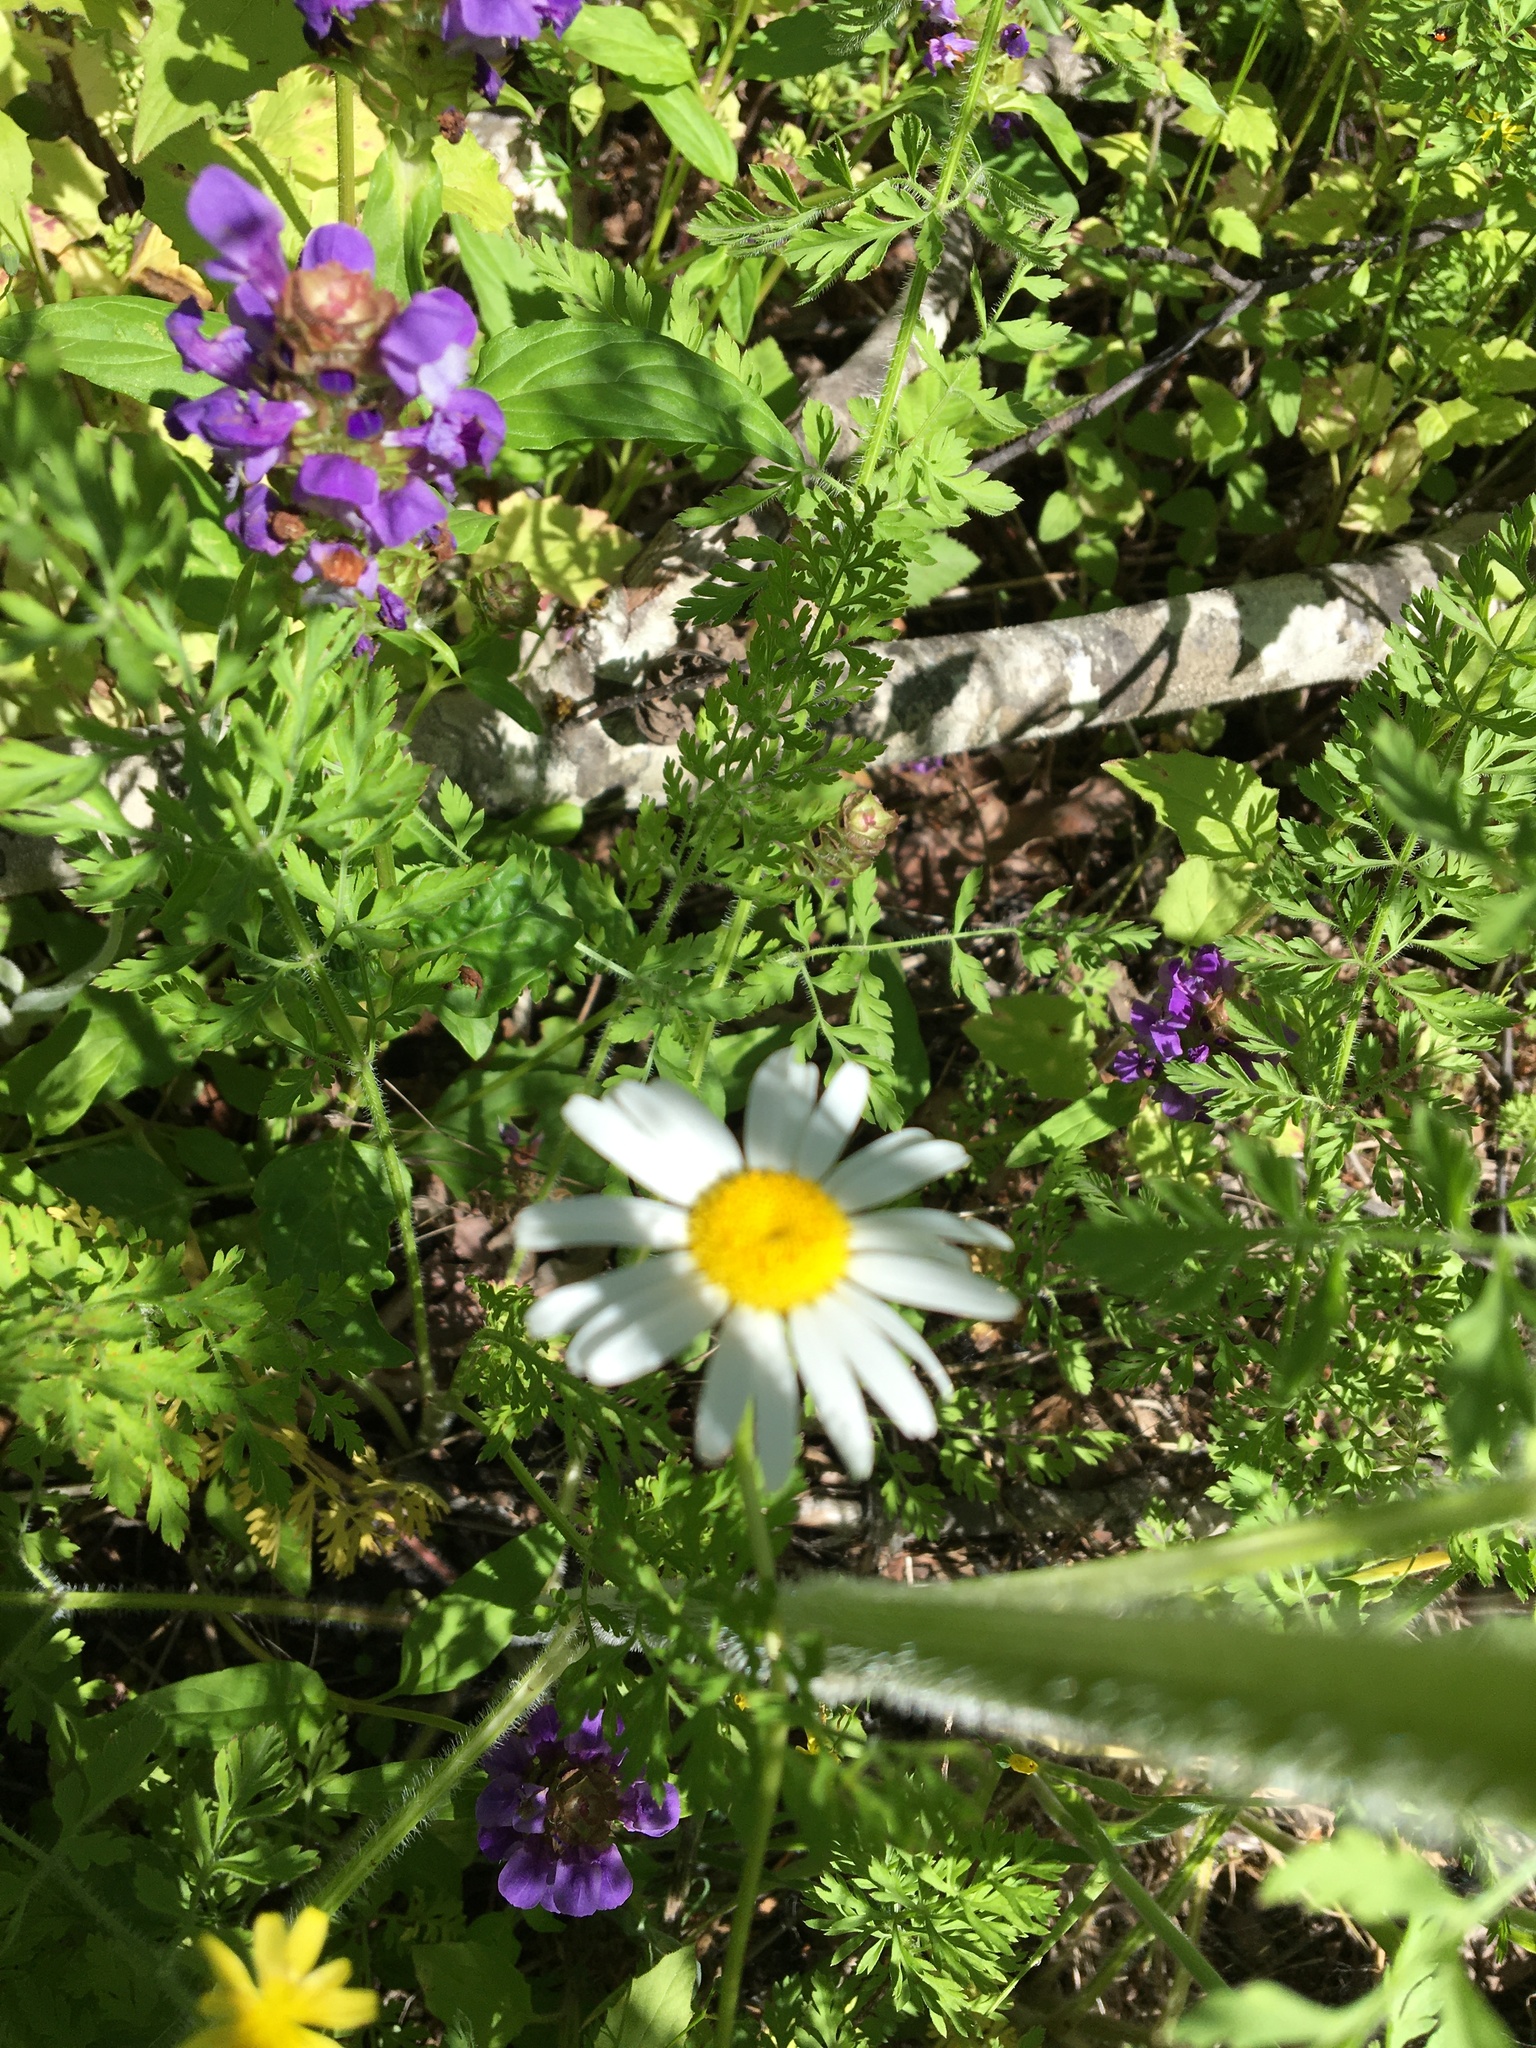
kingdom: Plantae
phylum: Tracheophyta
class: Magnoliopsida
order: Asterales
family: Asteraceae
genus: Leucanthemum
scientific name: Leucanthemum vulgare
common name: Oxeye daisy
